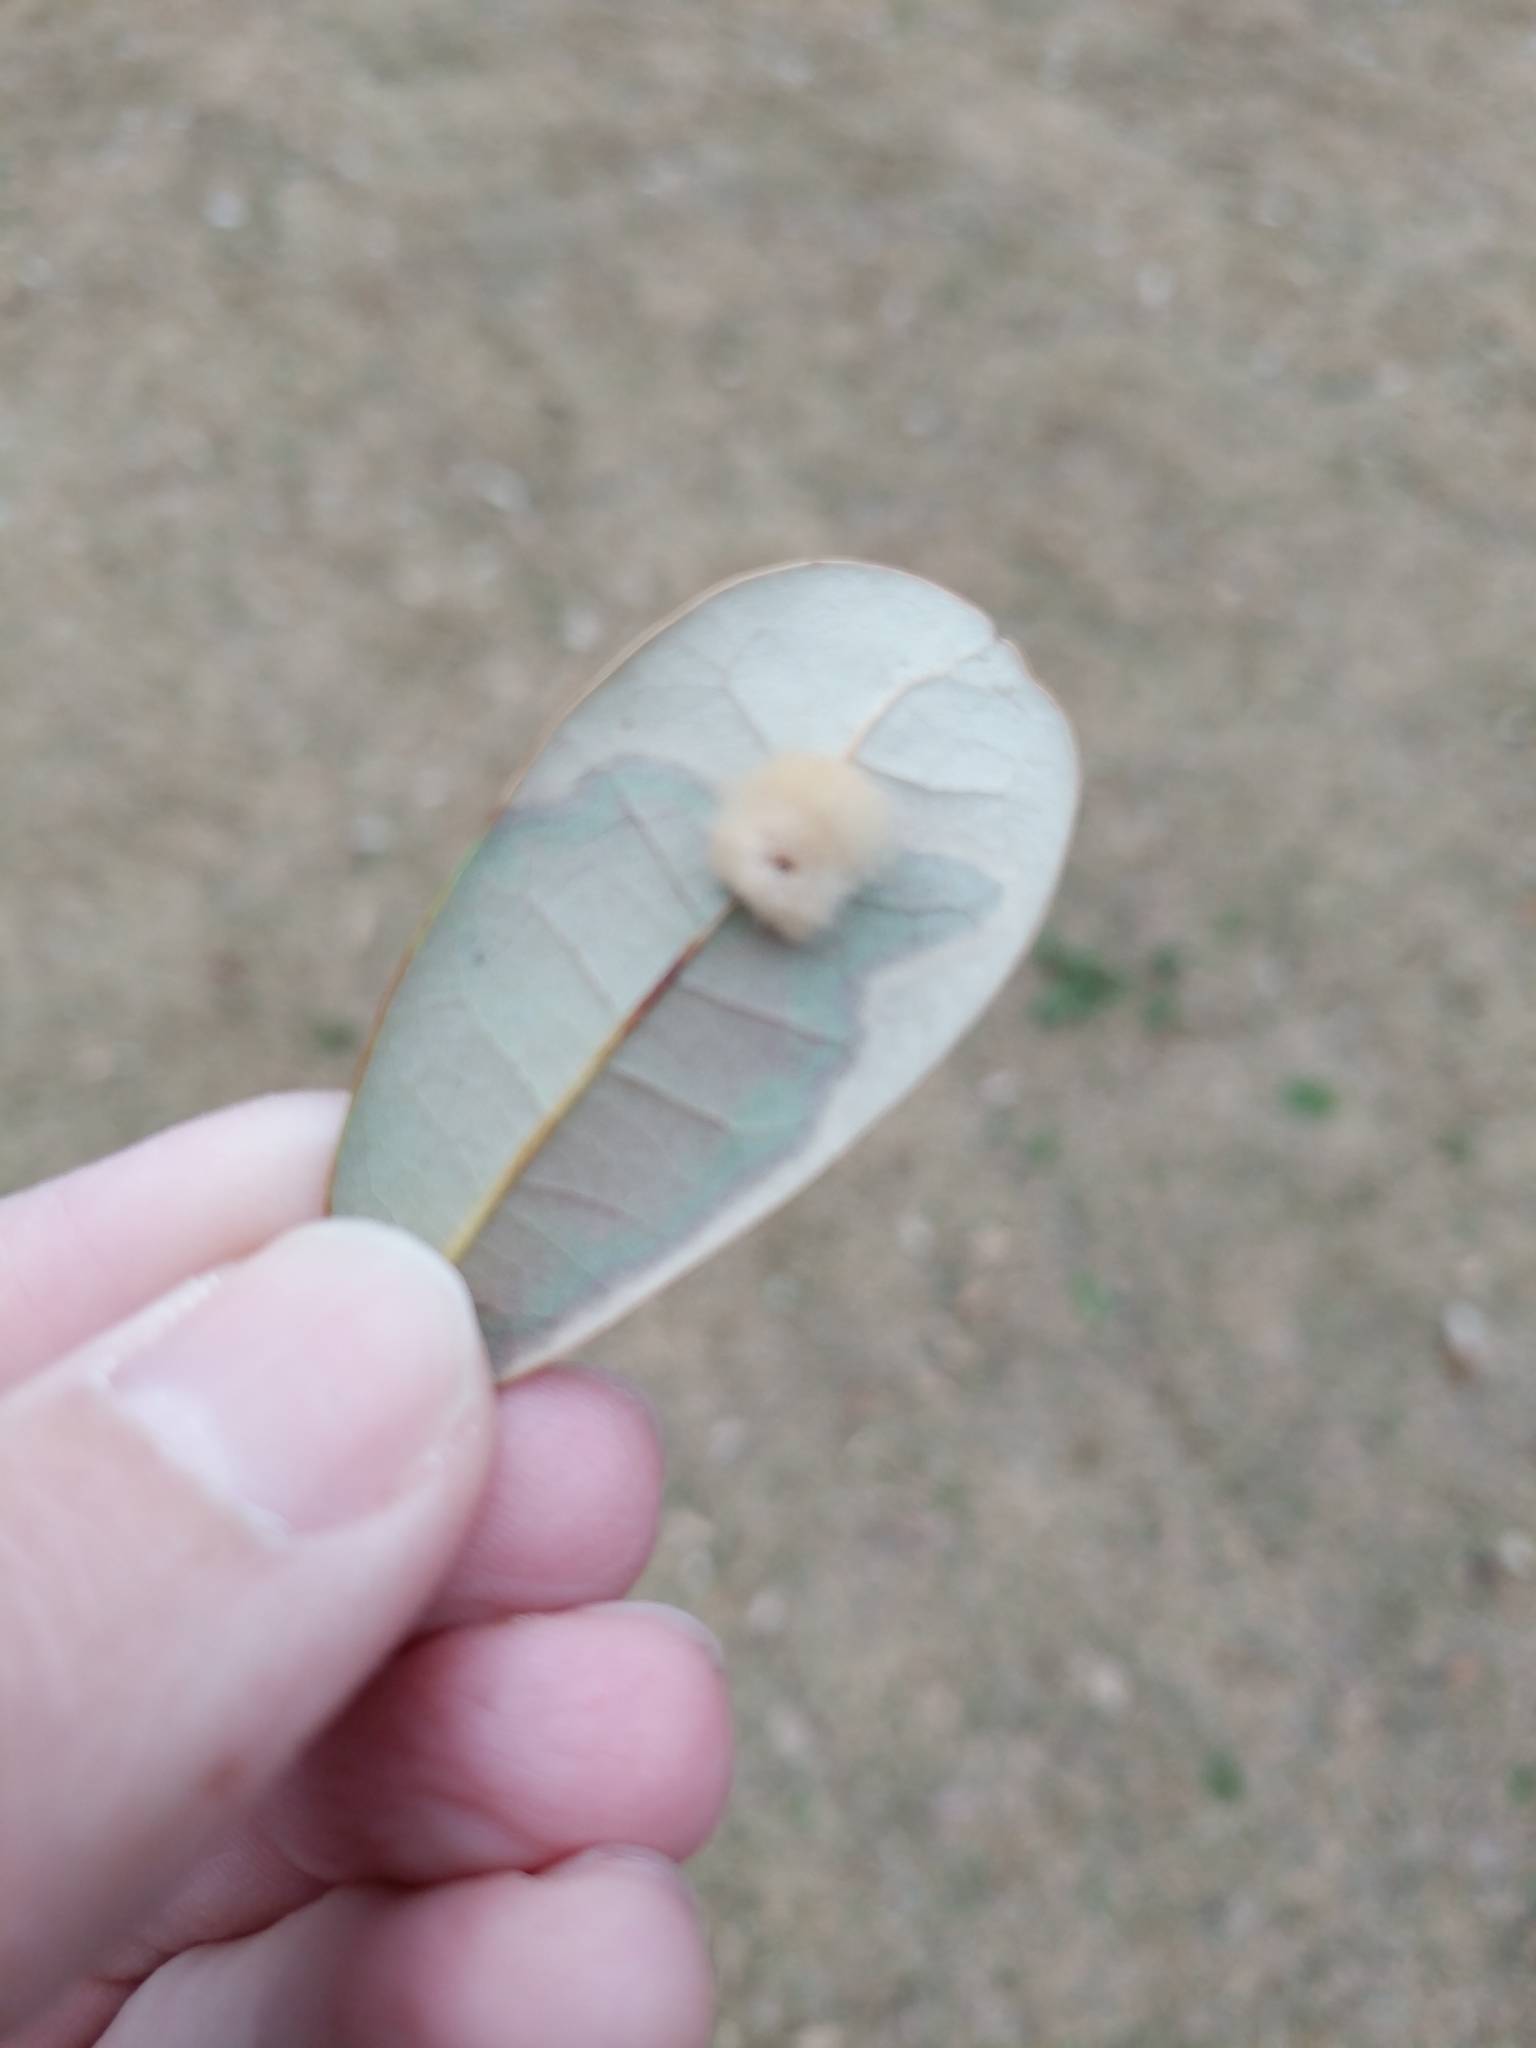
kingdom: Animalia
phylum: Arthropoda
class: Insecta
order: Hymenoptera
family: Cynipidae
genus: Andricus
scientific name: Andricus Druon quercuslanigerum
